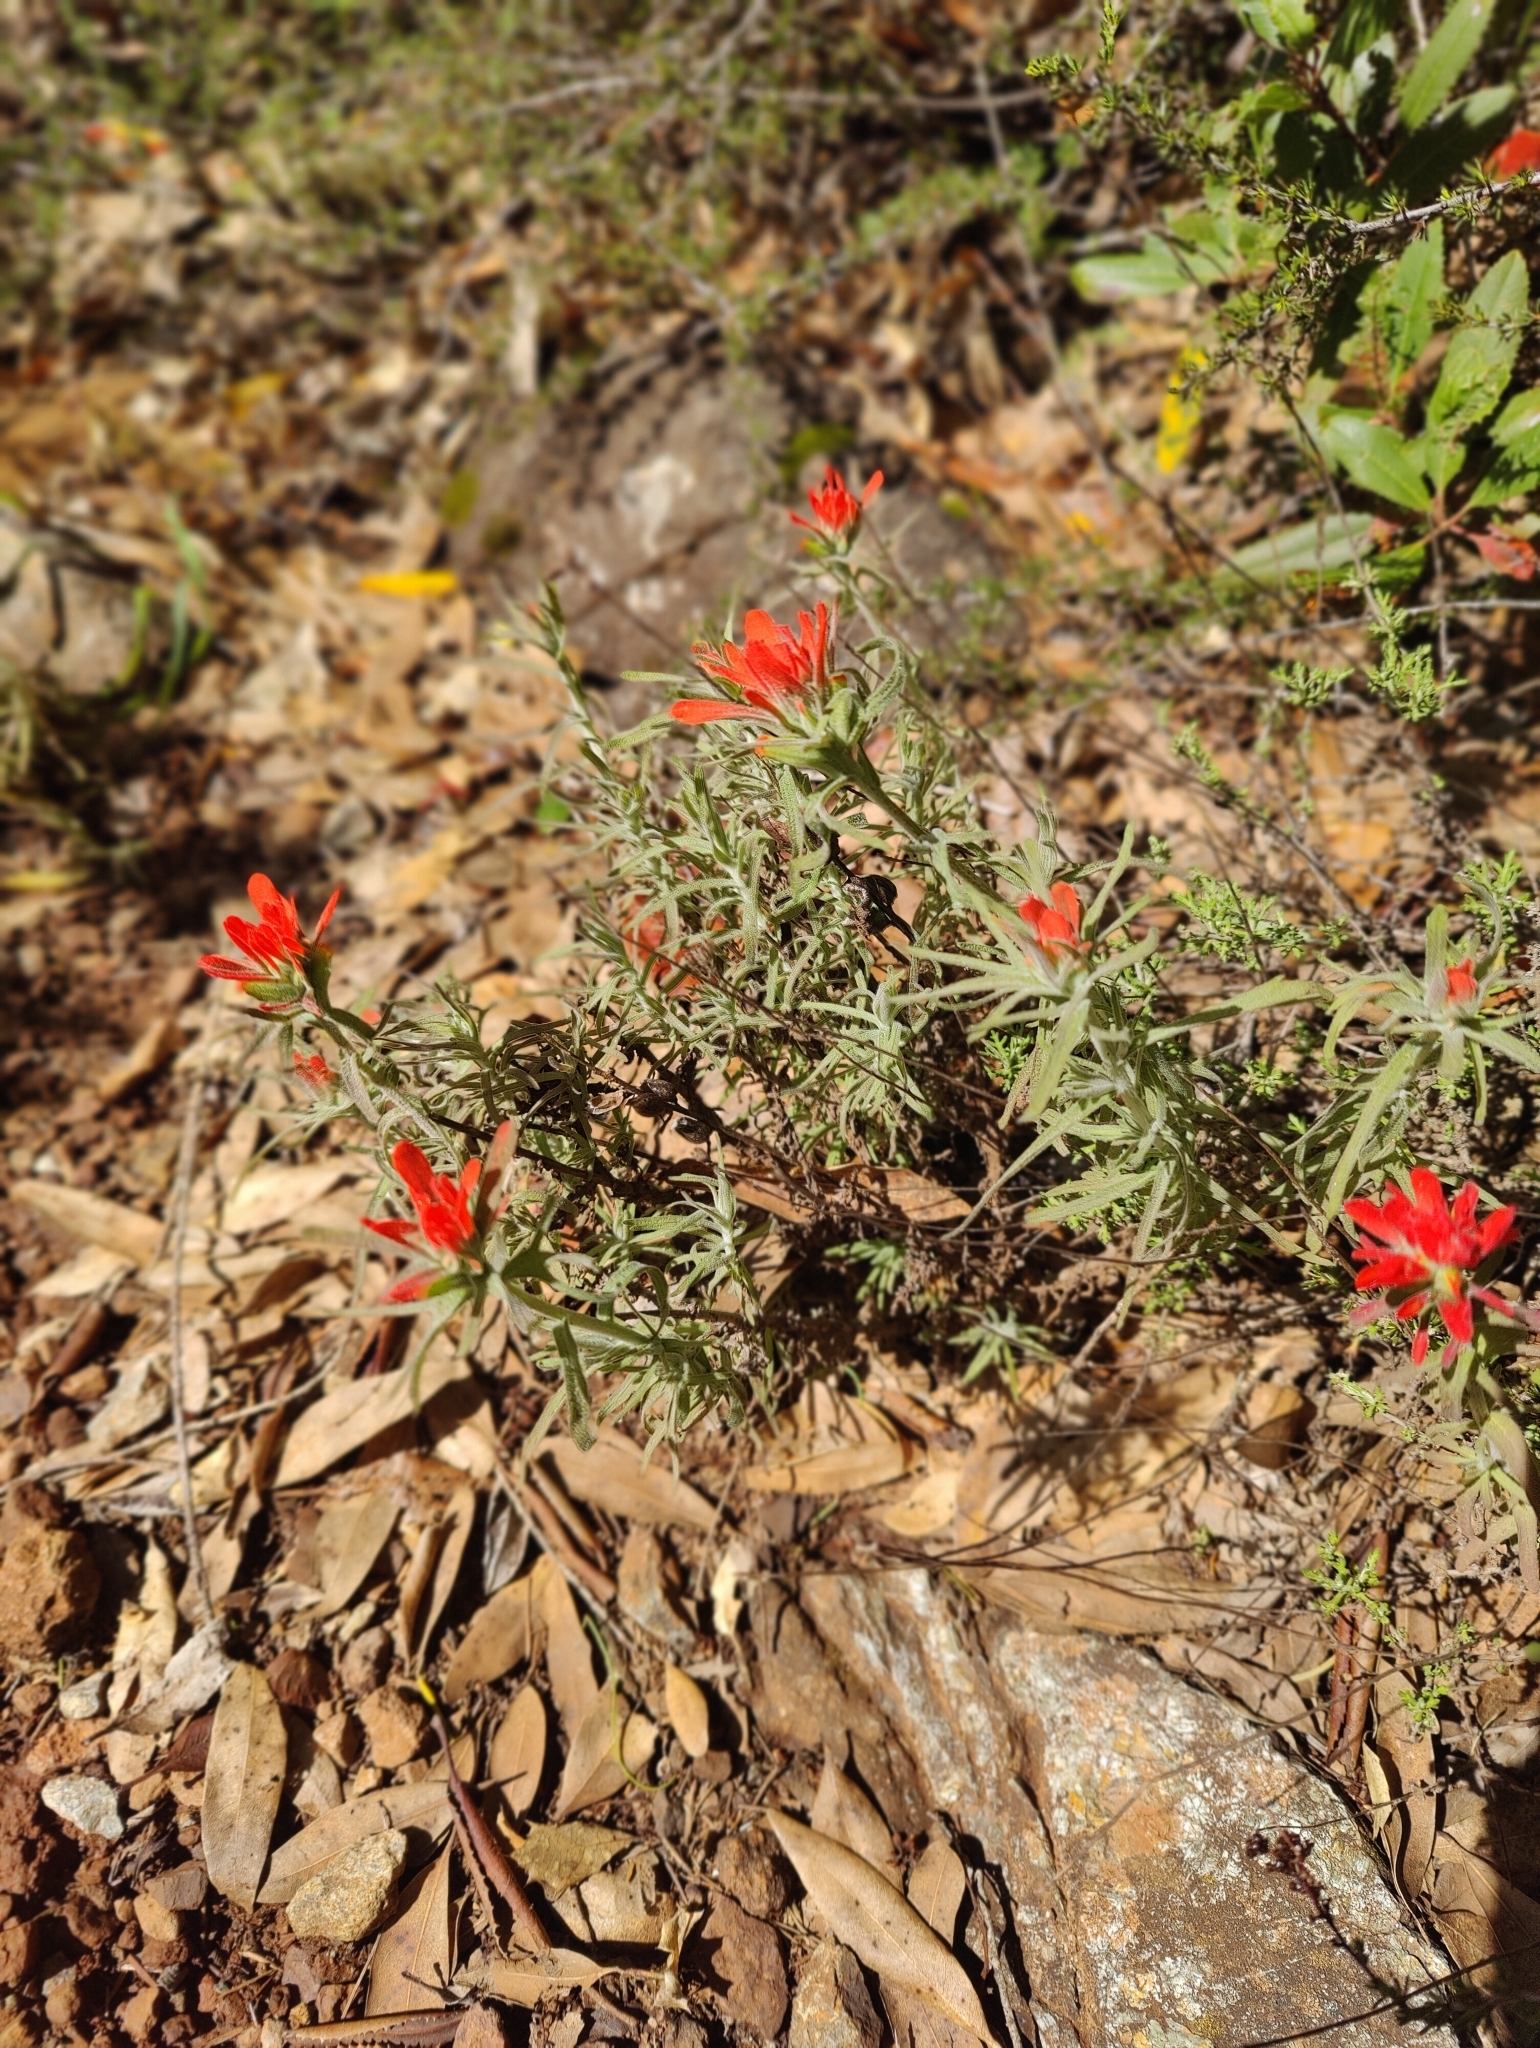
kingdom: Plantae
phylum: Tracheophyta
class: Magnoliopsida
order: Lamiales
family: Orobanchaceae
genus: Castilleja
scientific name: Castilleja foliolosa
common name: Woolly indian paintbrush
